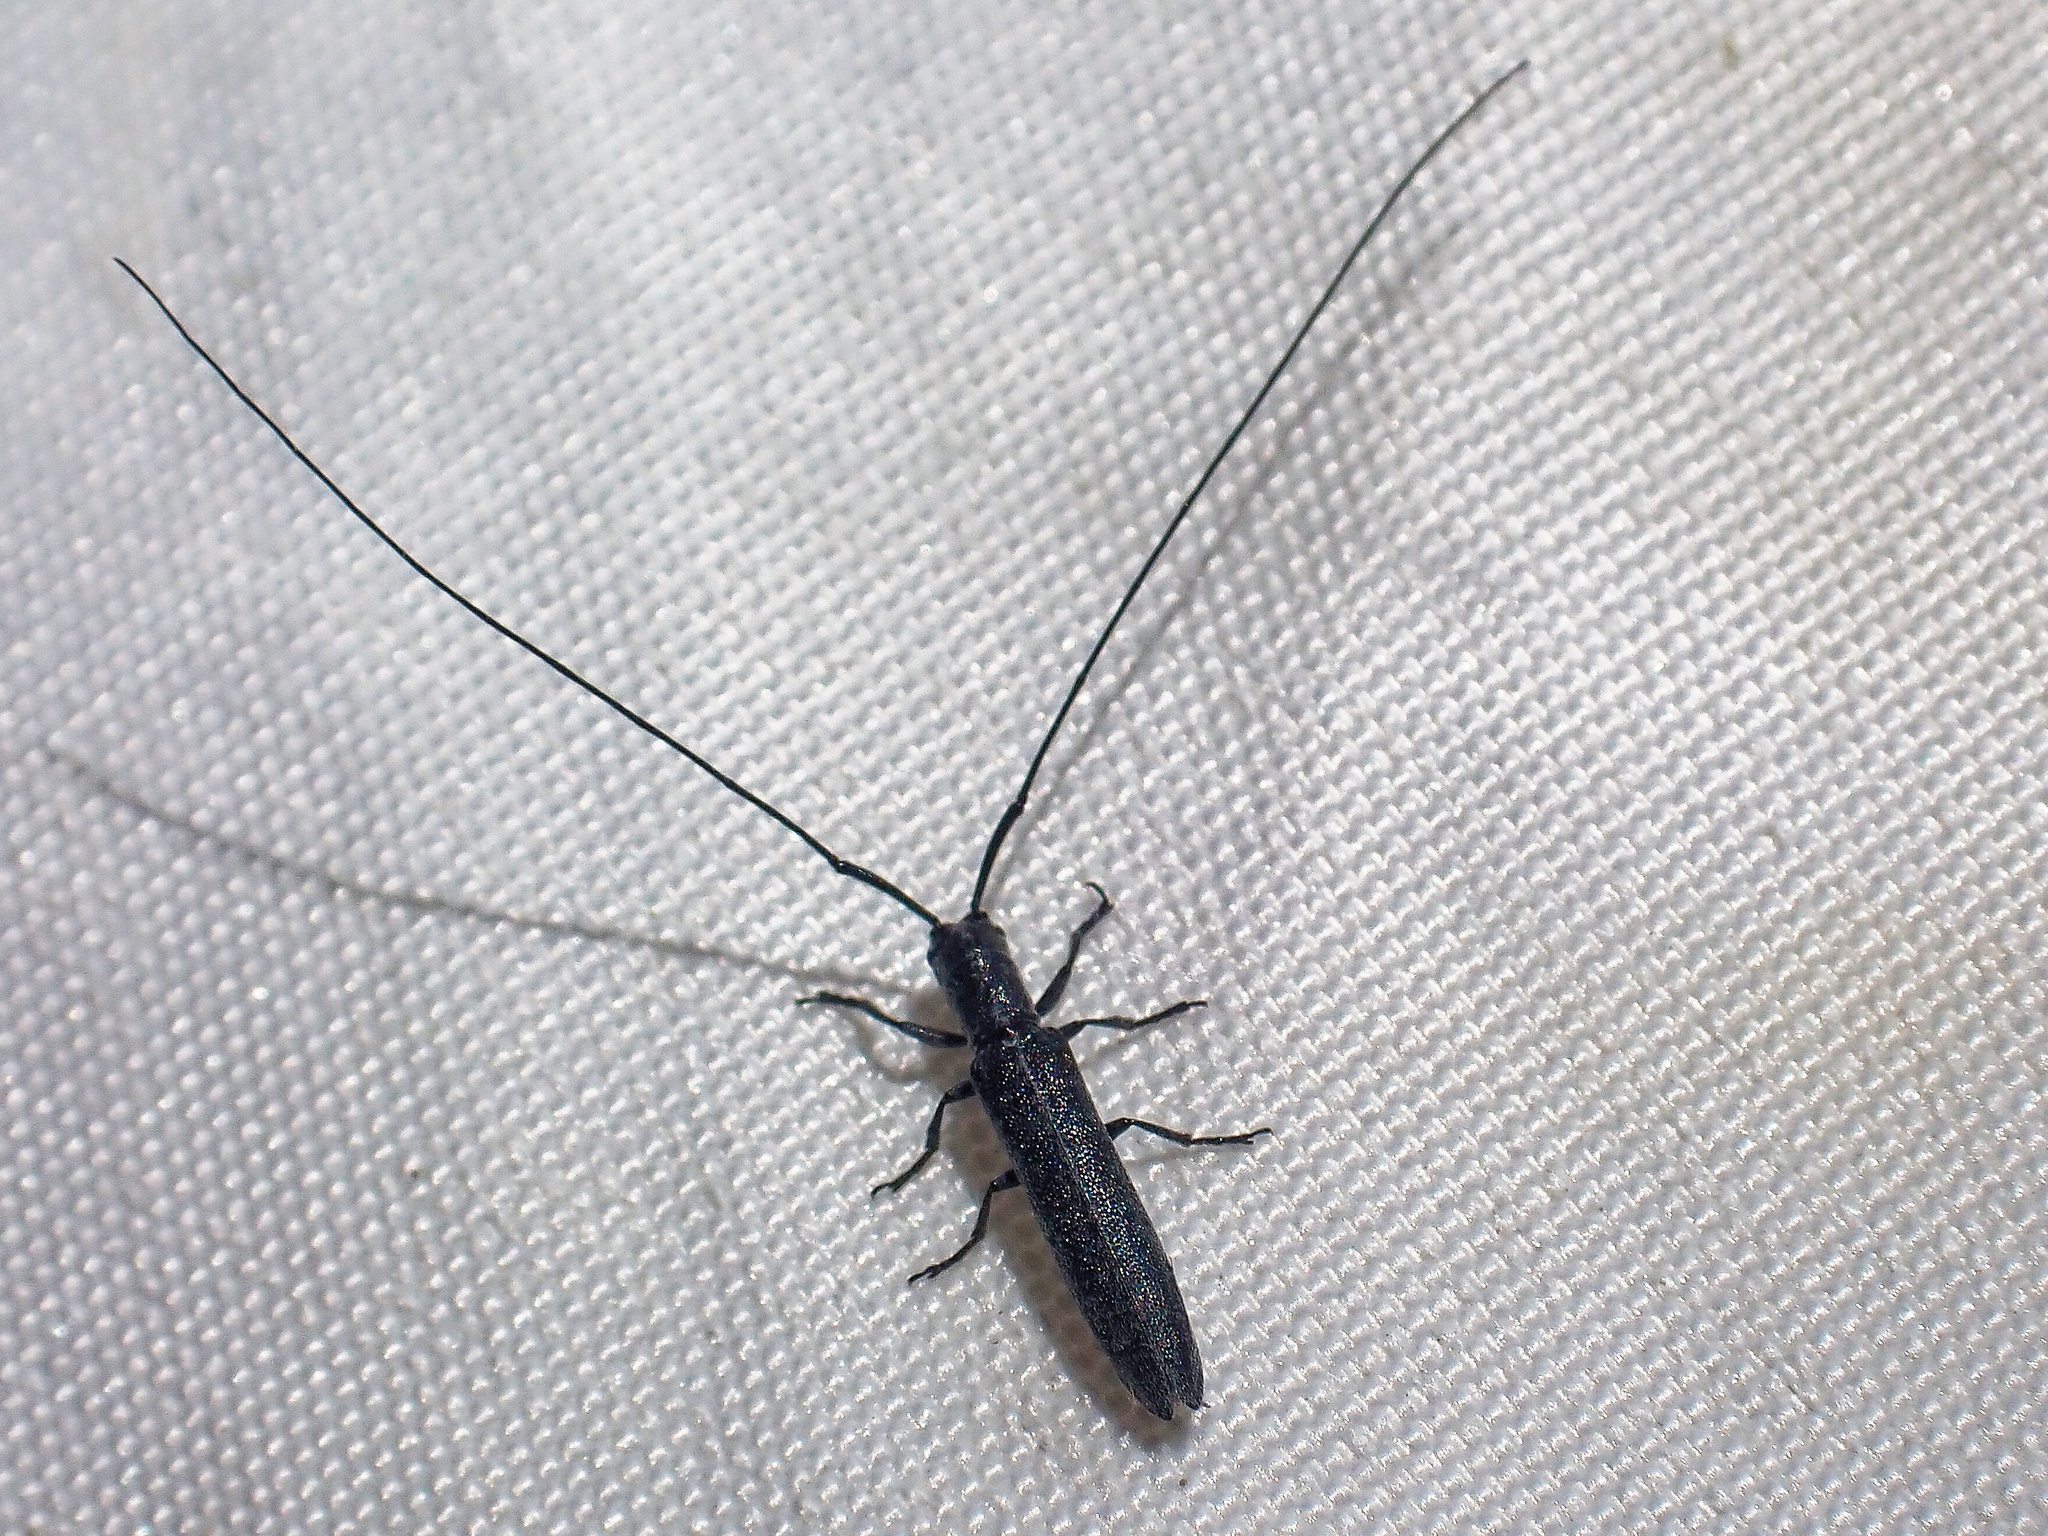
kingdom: Animalia
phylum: Arthropoda
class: Insecta
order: Coleoptera
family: Cerambycidae
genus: Calamobius
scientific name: Calamobius filum
